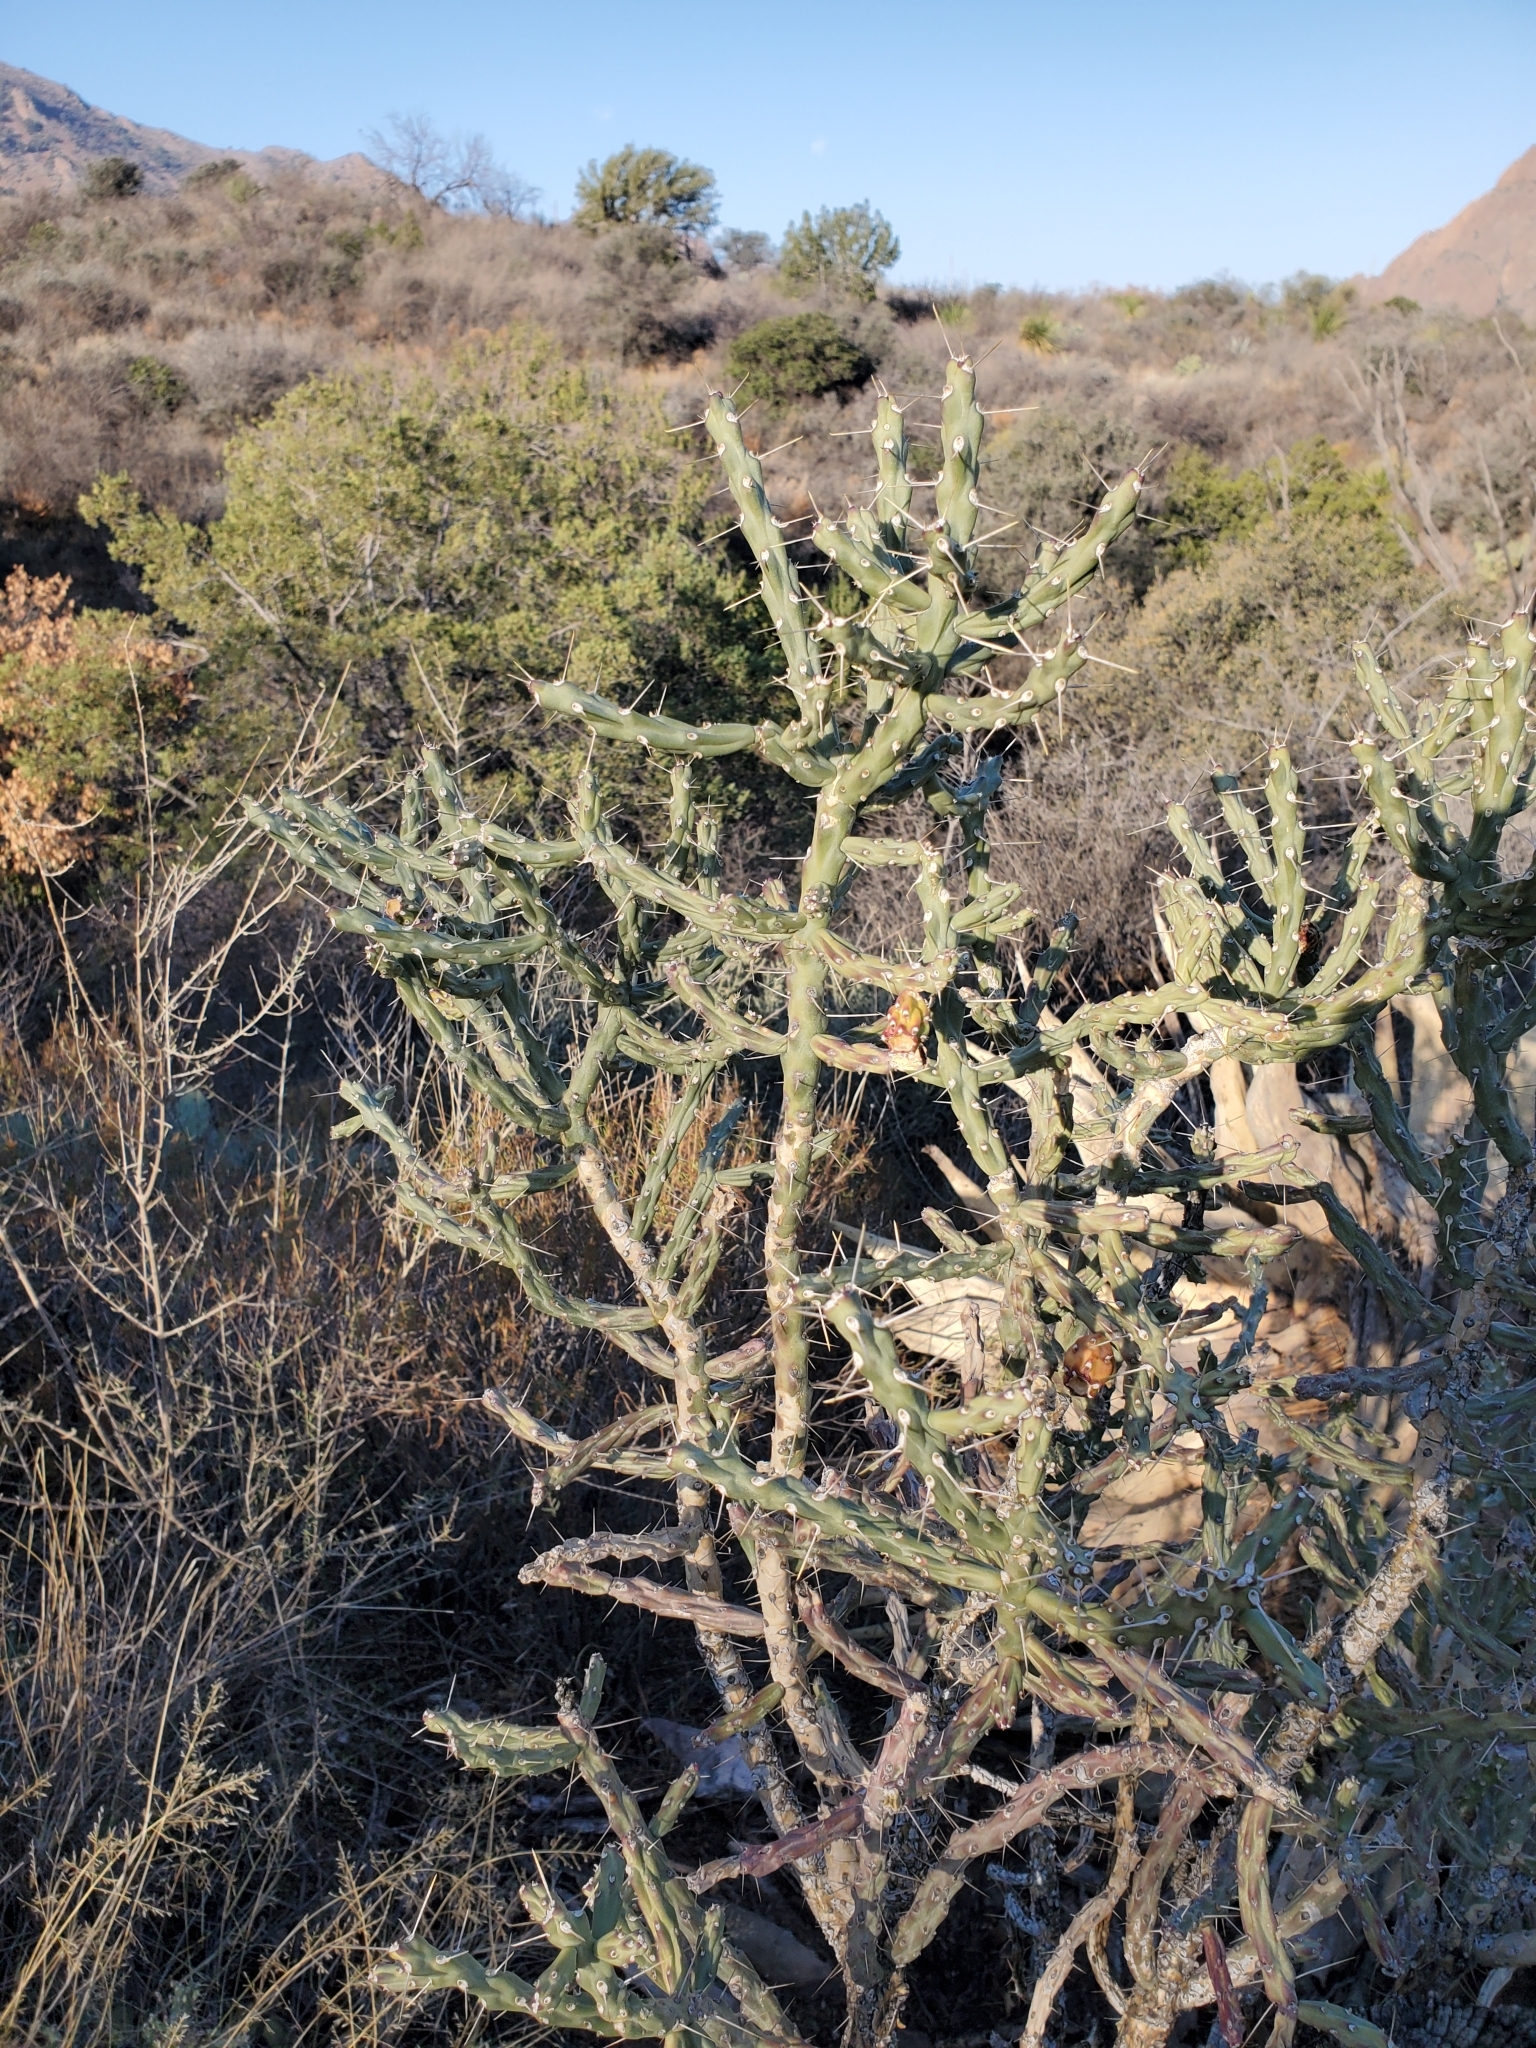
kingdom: Plantae
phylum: Tracheophyta
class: Magnoliopsida
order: Caryophyllales
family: Cactaceae
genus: Cylindropuntia
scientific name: Cylindropuntia kleiniae
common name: Klein's cholla
